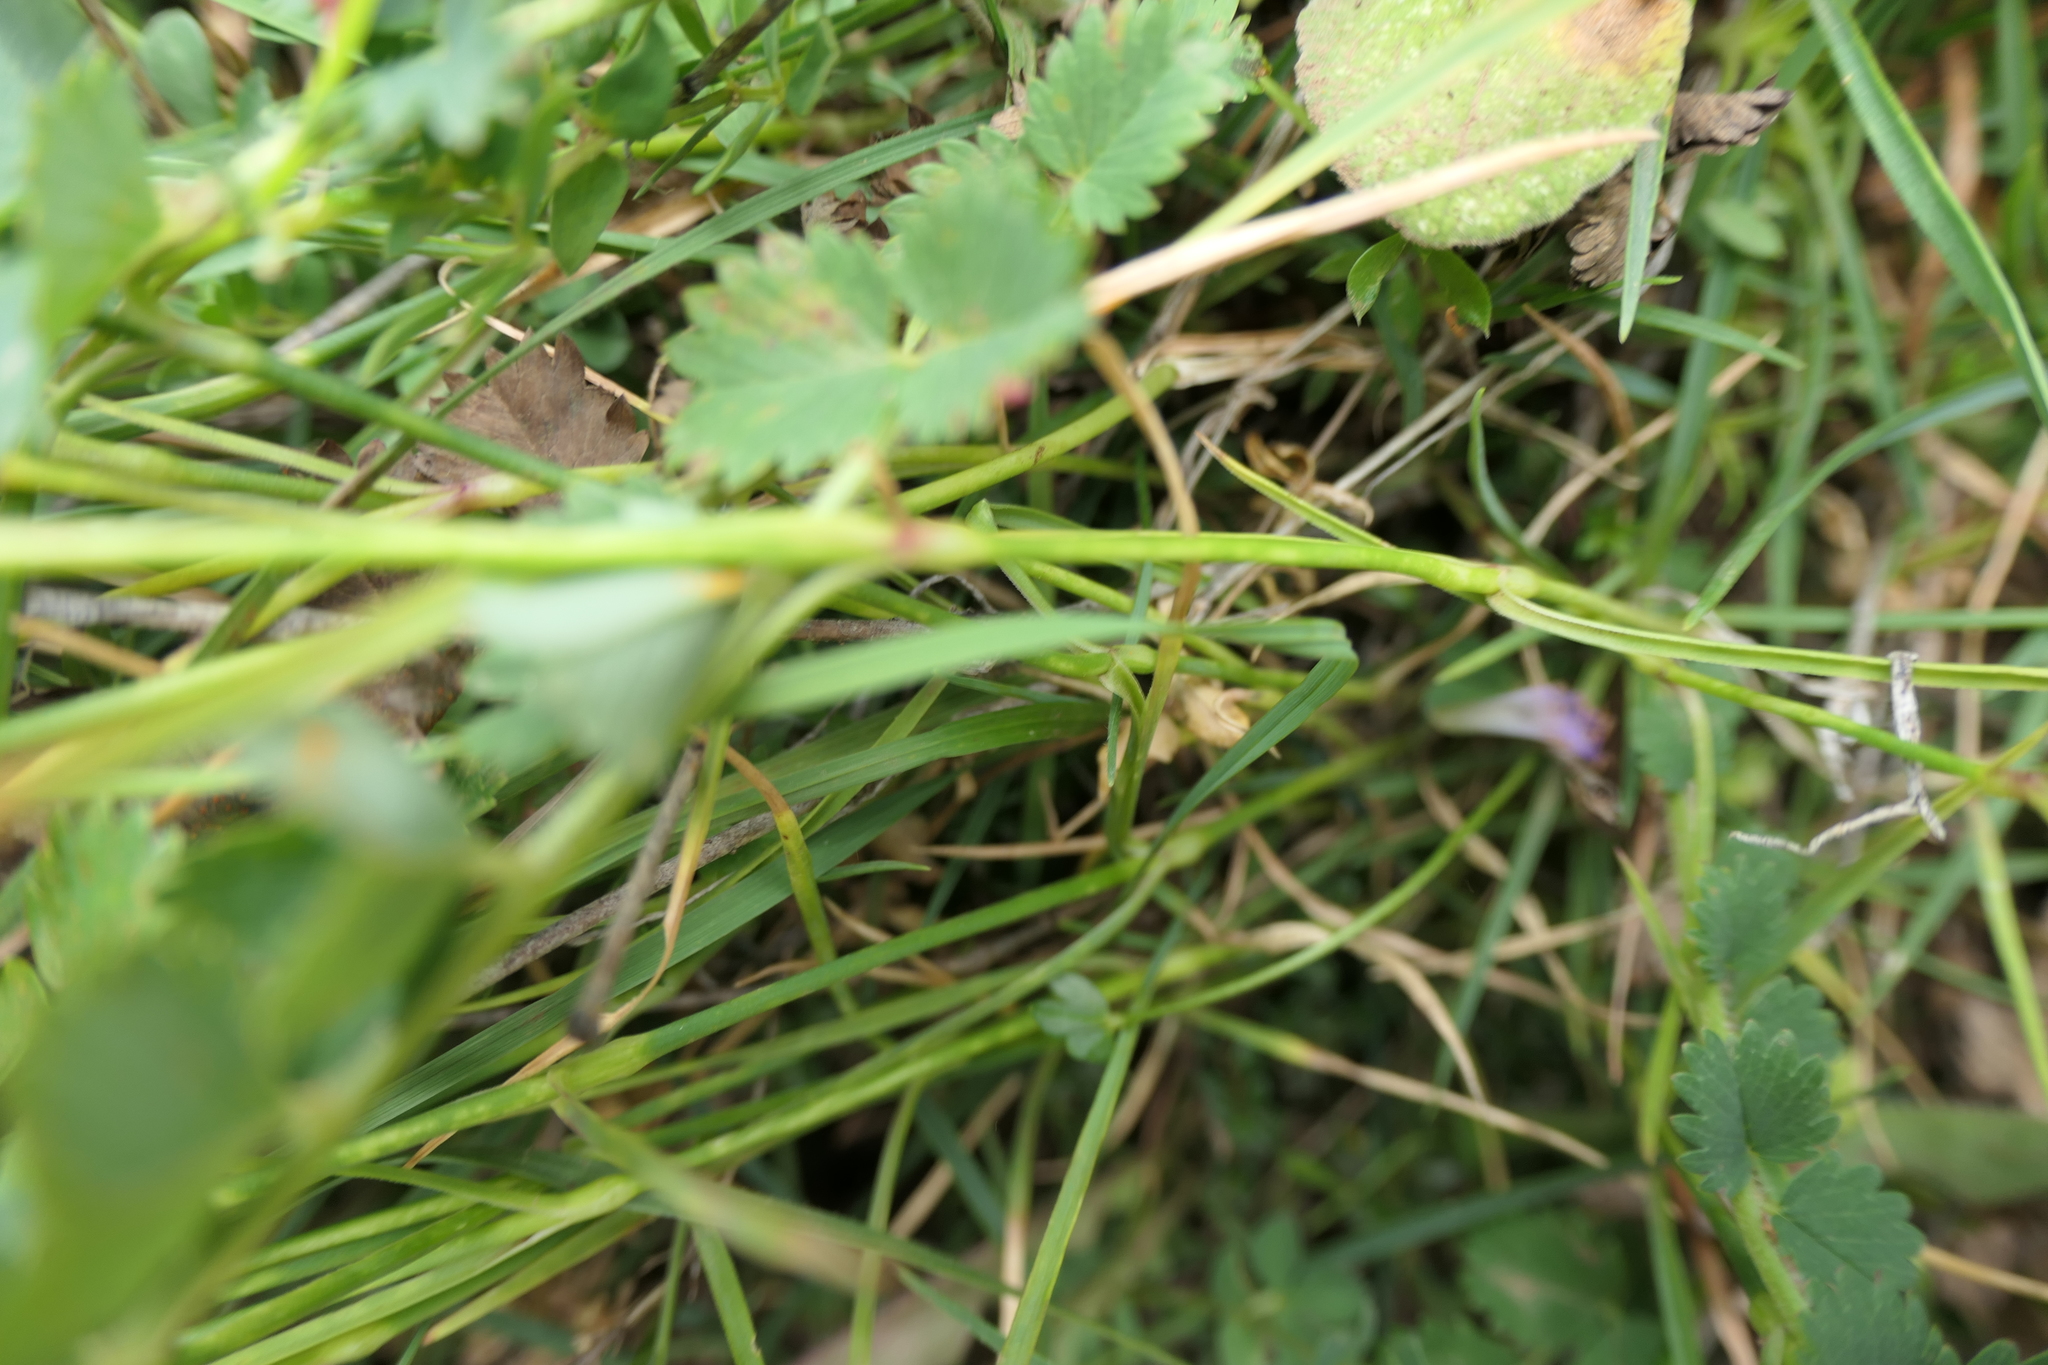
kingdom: Plantae
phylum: Tracheophyta
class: Magnoliopsida
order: Caryophyllales
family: Caryophyllaceae
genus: Dianthus
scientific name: Dianthus hyssopifolius
